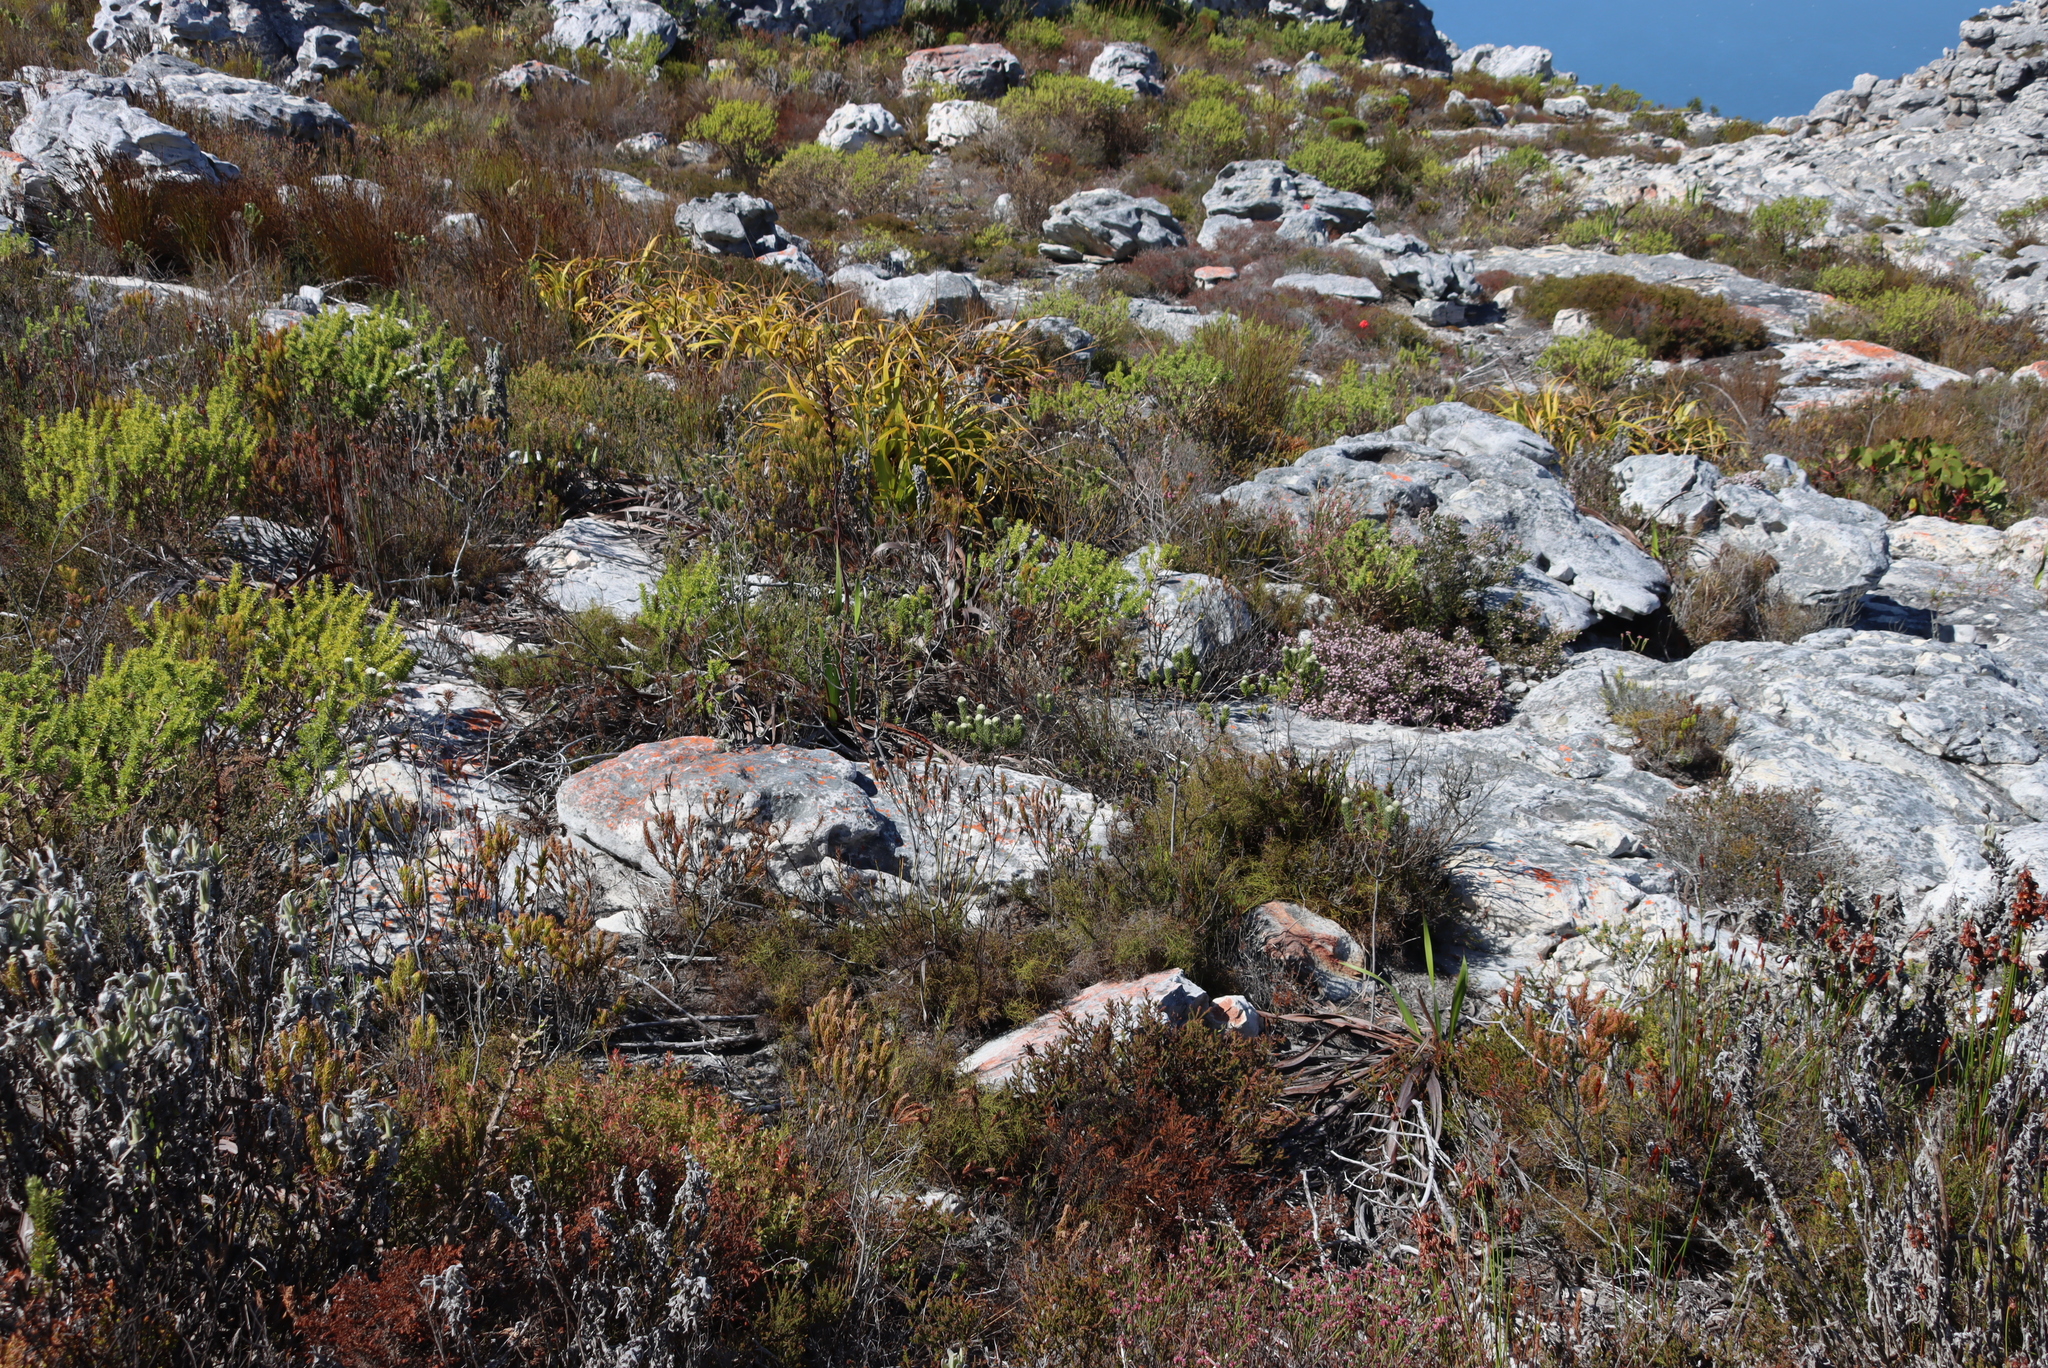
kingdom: Plantae
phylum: Tracheophyta
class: Magnoliopsida
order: Rosales
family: Rhamnaceae
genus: Phylica
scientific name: Phylica strigosa
